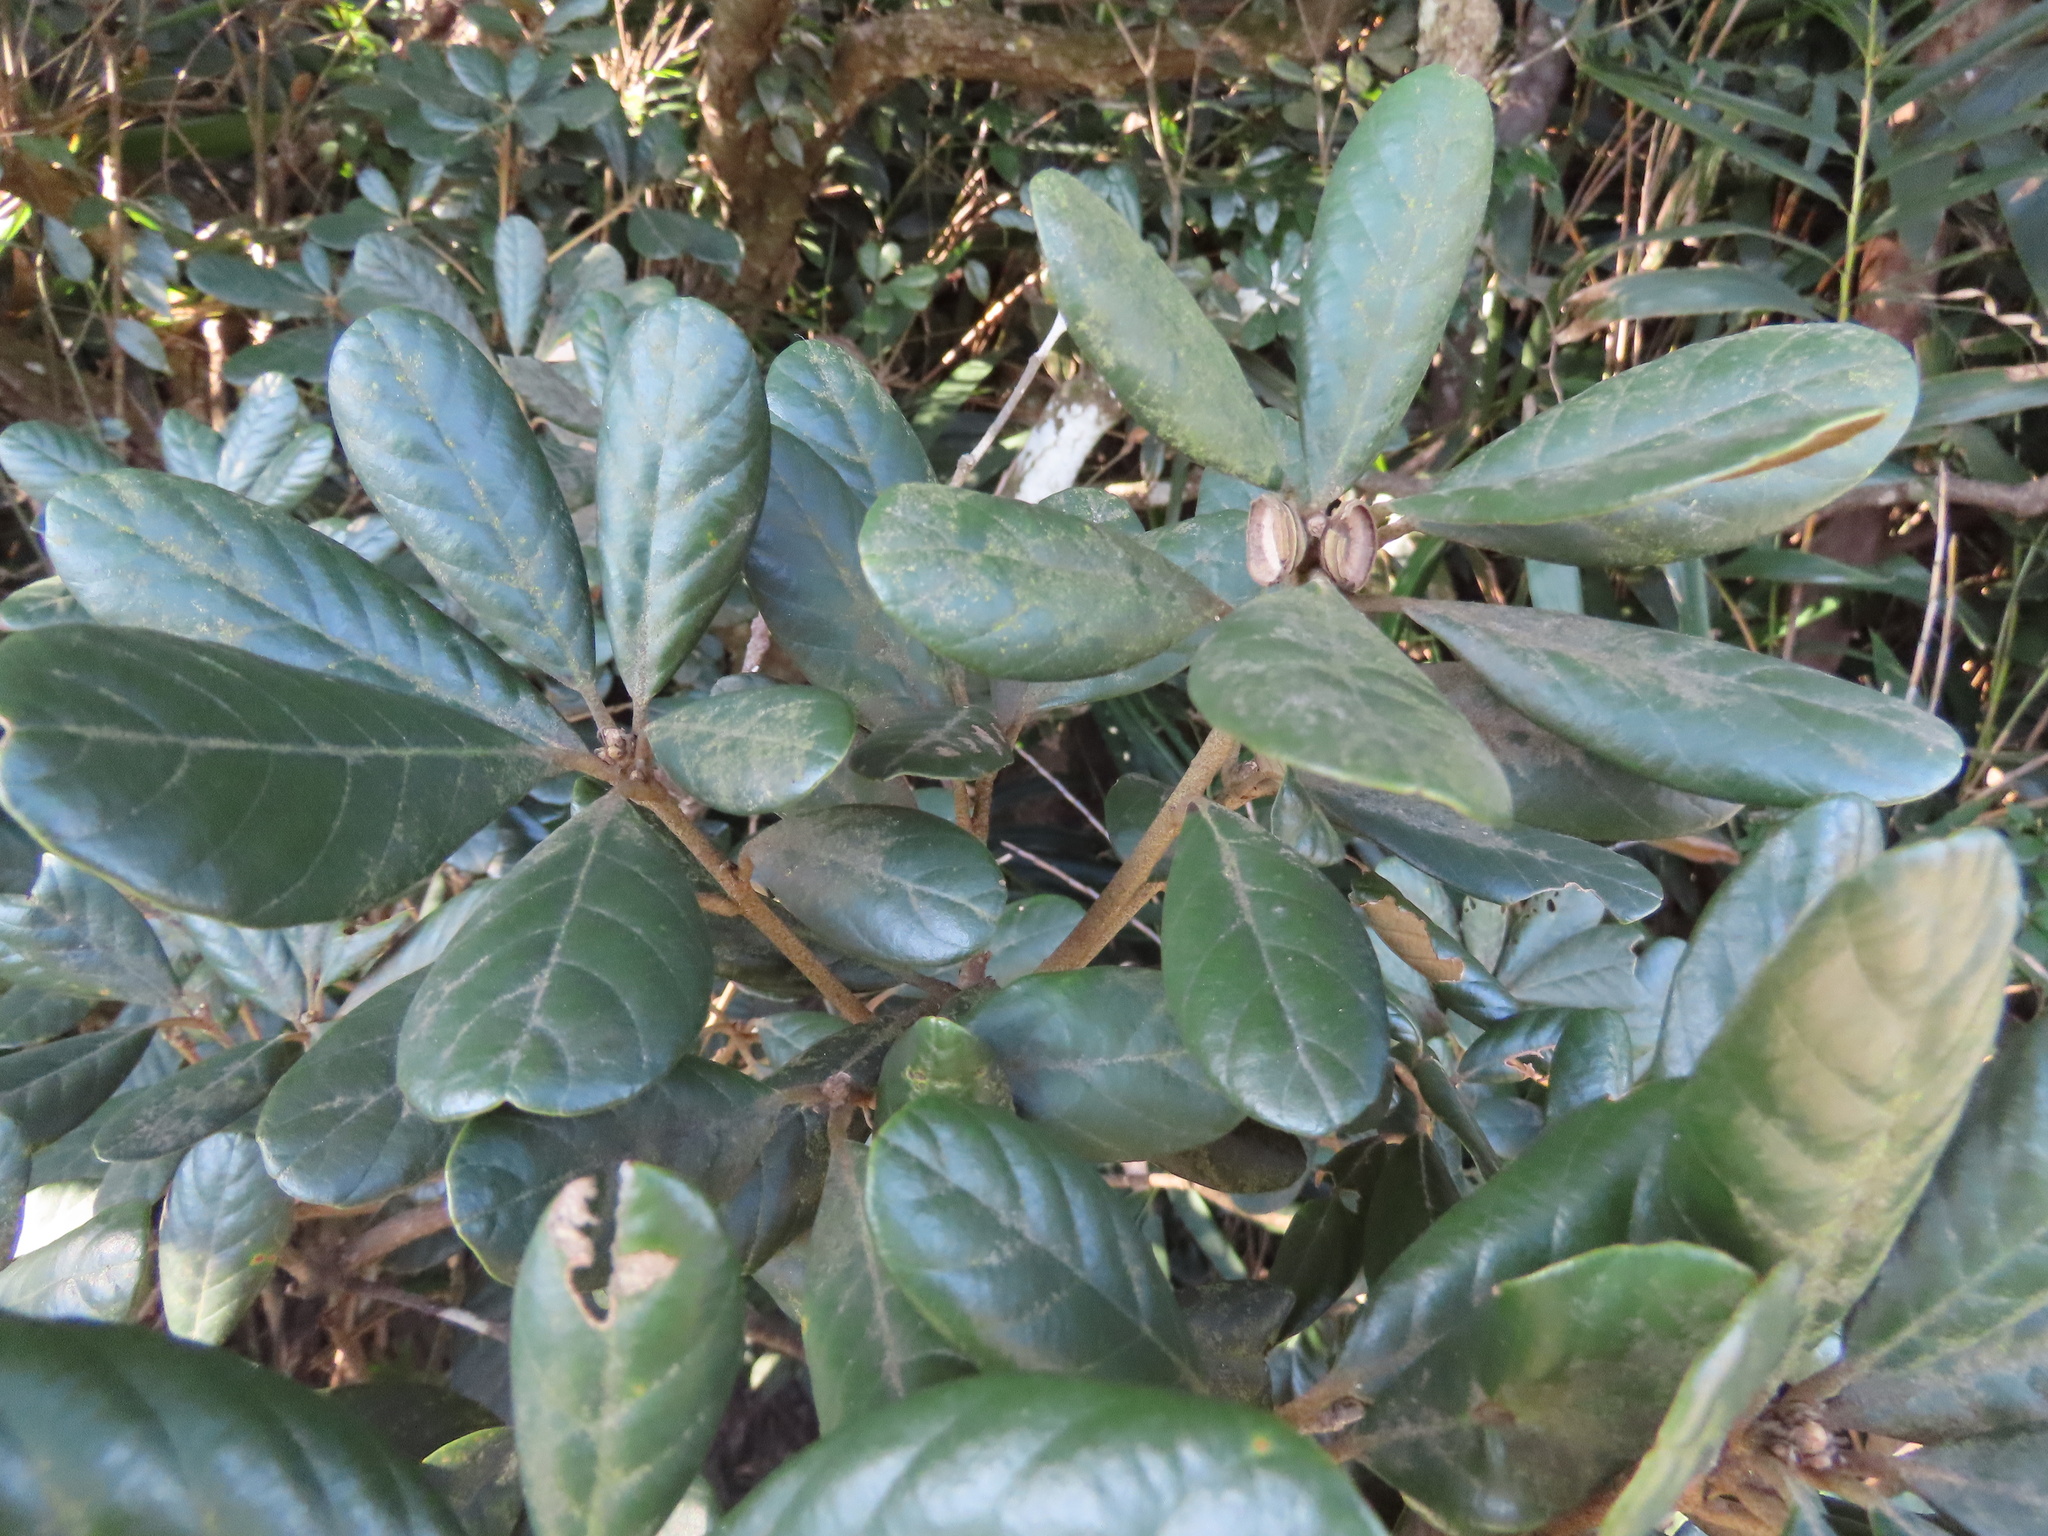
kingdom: Plantae
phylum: Tracheophyta
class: Magnoliopsida
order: Fagales
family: Fagaceae
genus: Quercus
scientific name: Quercus championii
